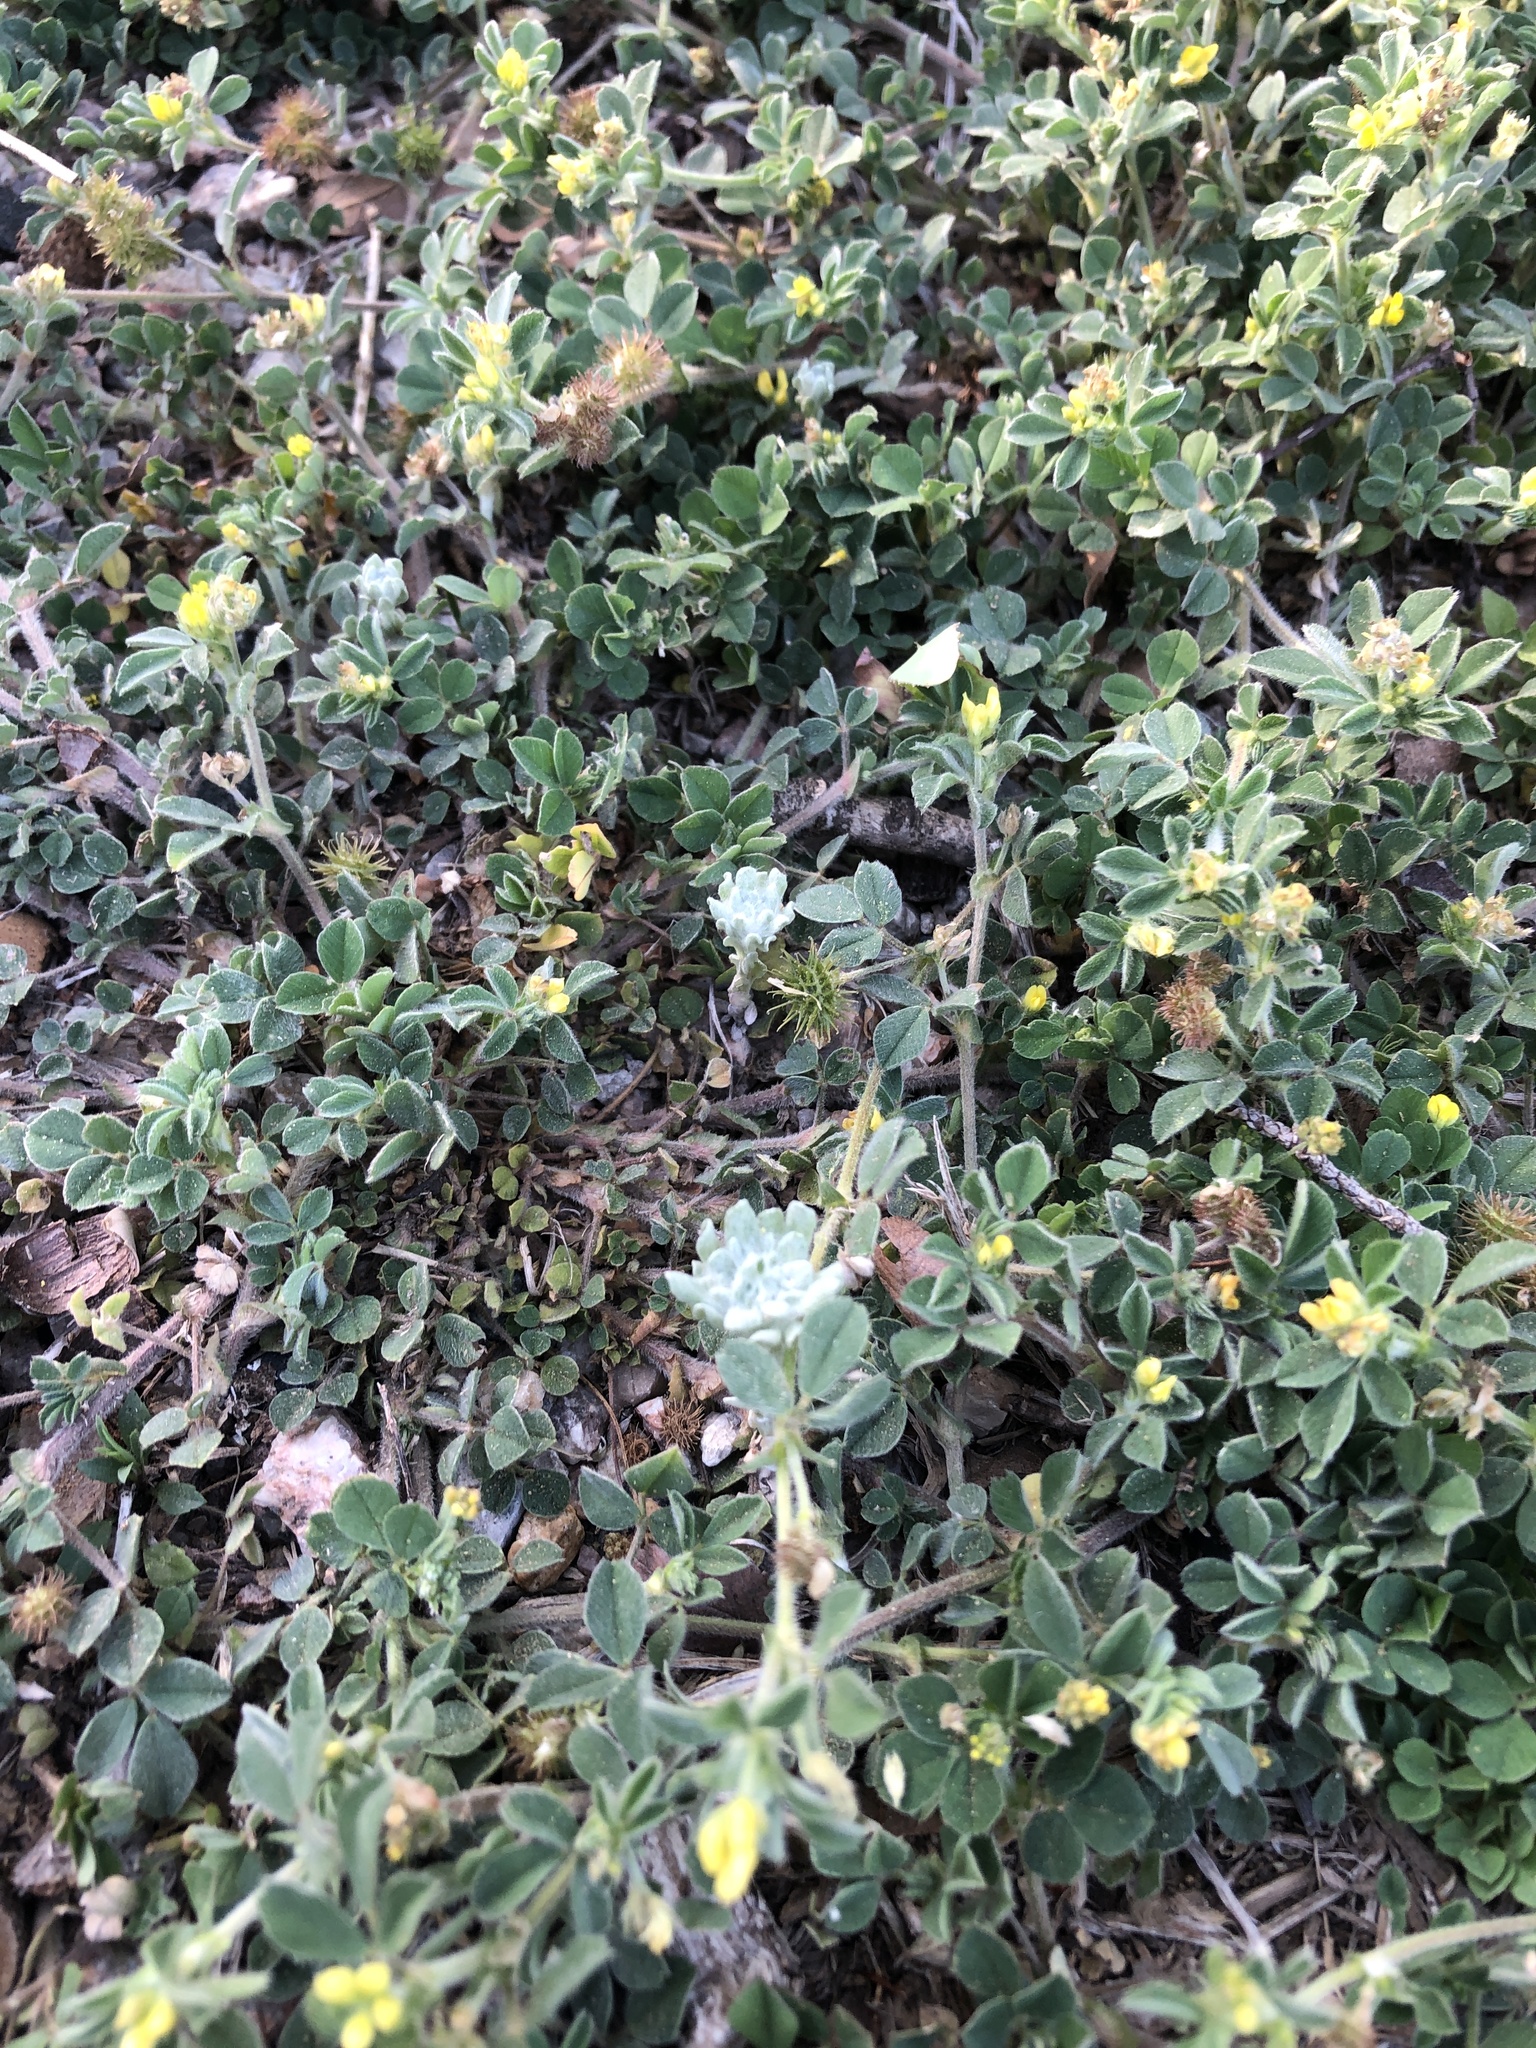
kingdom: Plantae
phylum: Tracheophyta
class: Magnoliopsida
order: Asterales
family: Asteraceae
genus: Diaperia
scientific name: Diaperia prolifera
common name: Big-head rabbit-tobacco
